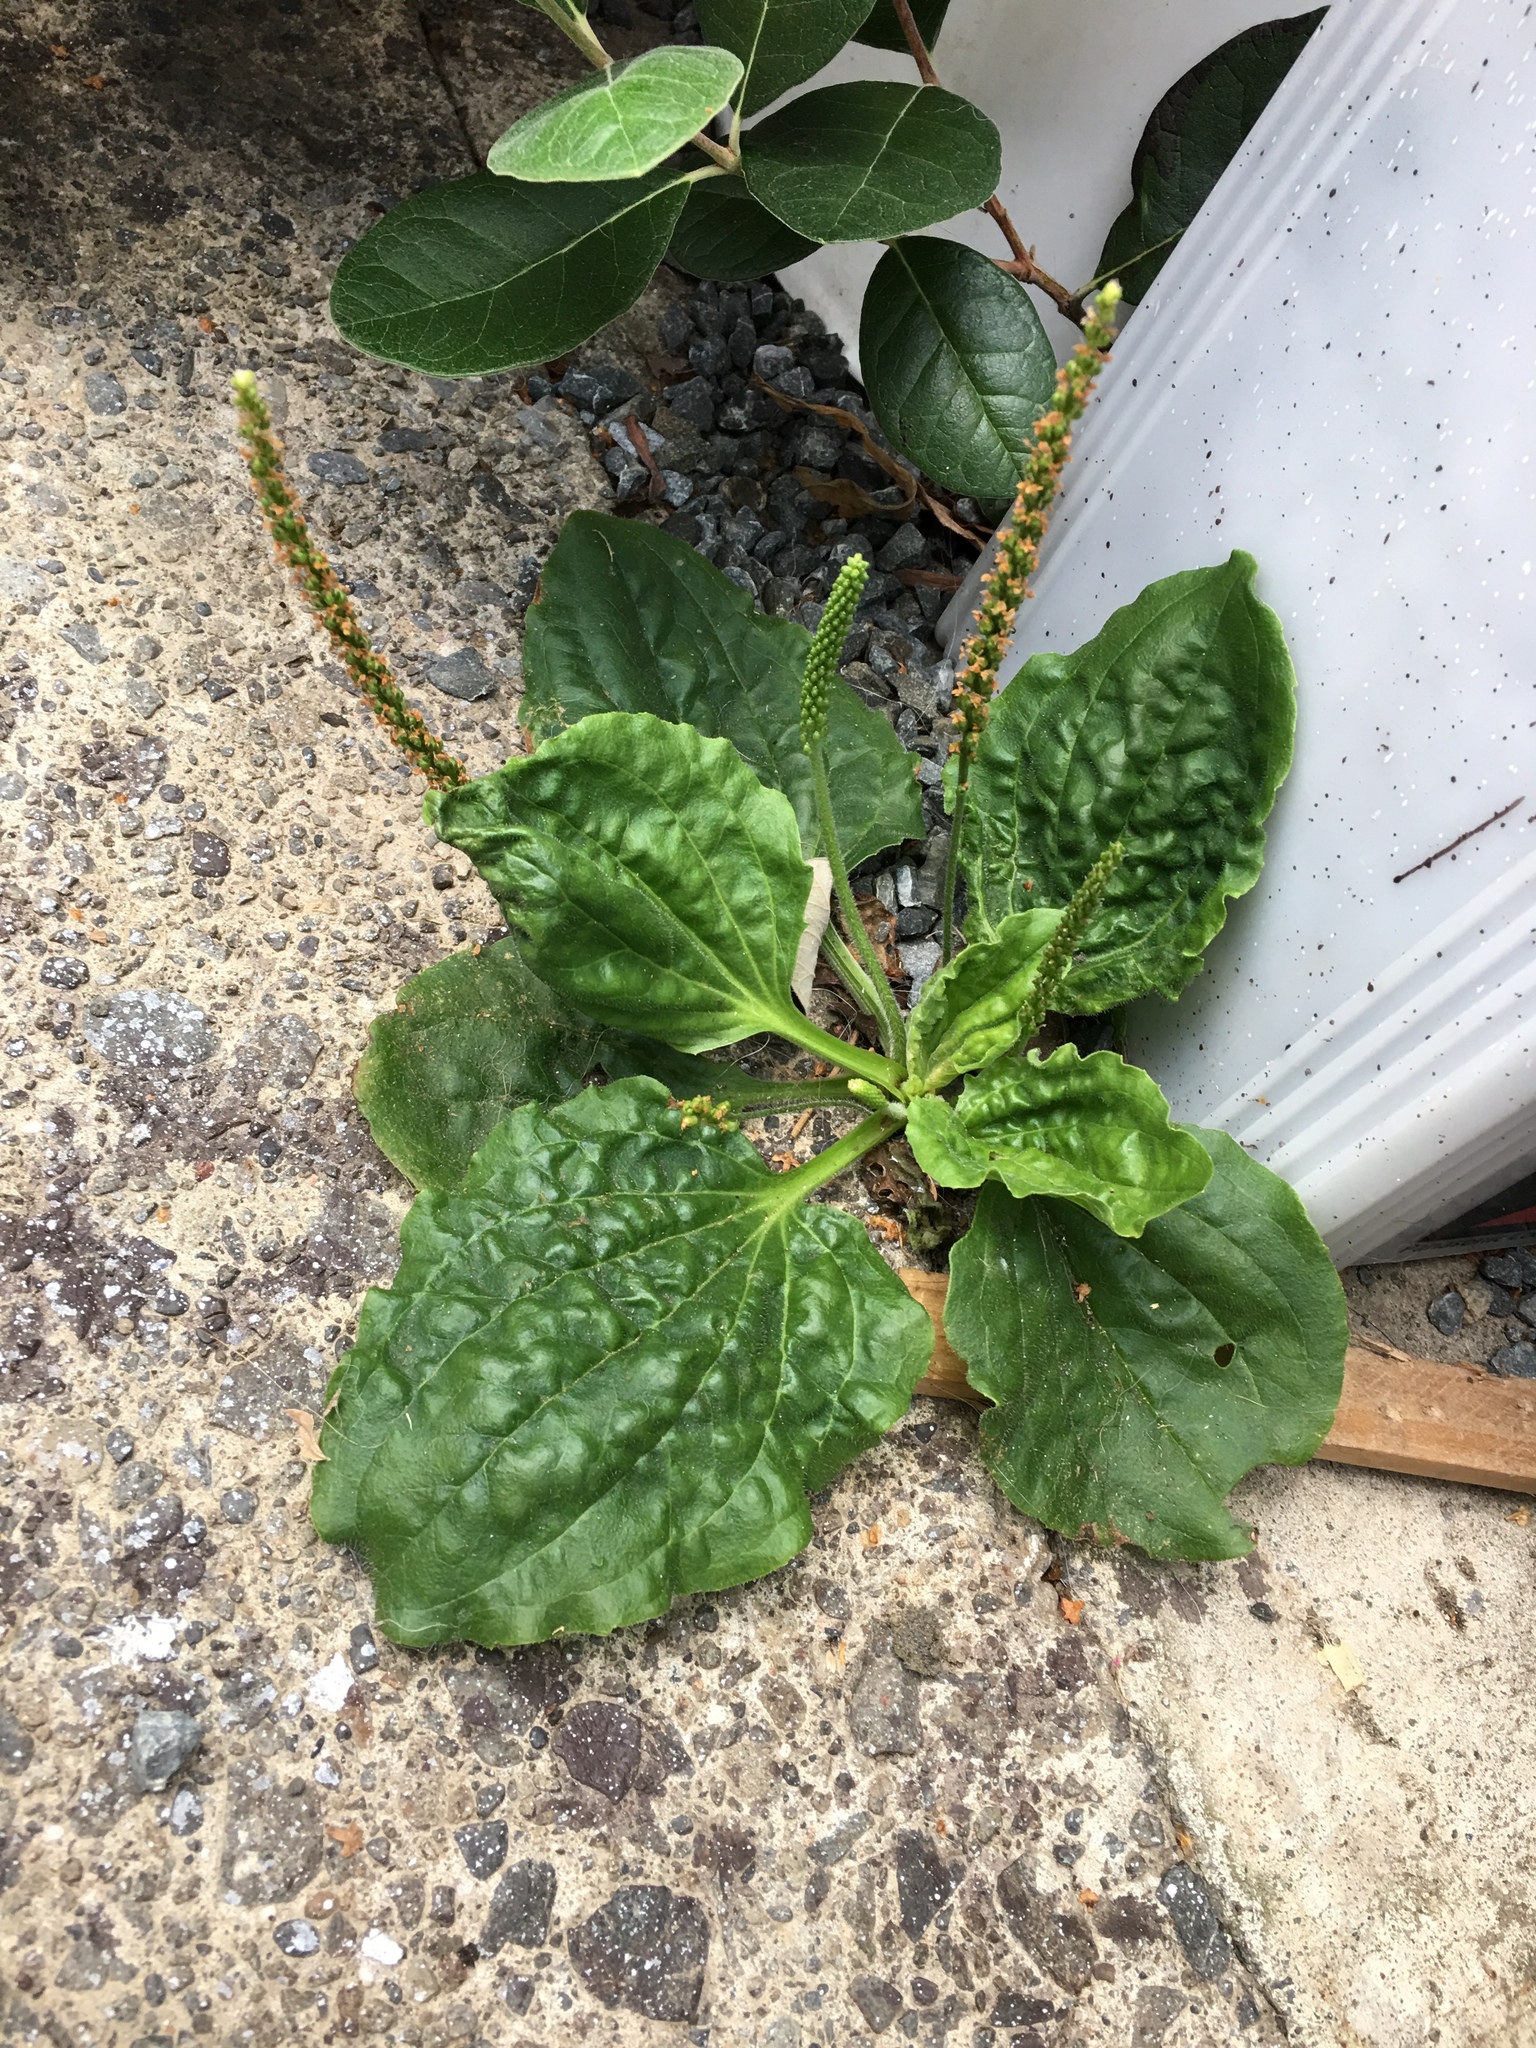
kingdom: Plantae
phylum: Tracheophyta
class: Magnoliopsida
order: Lamiales
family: Plantaginaceae
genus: Plantago
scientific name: Plantago major
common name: Common plantain
